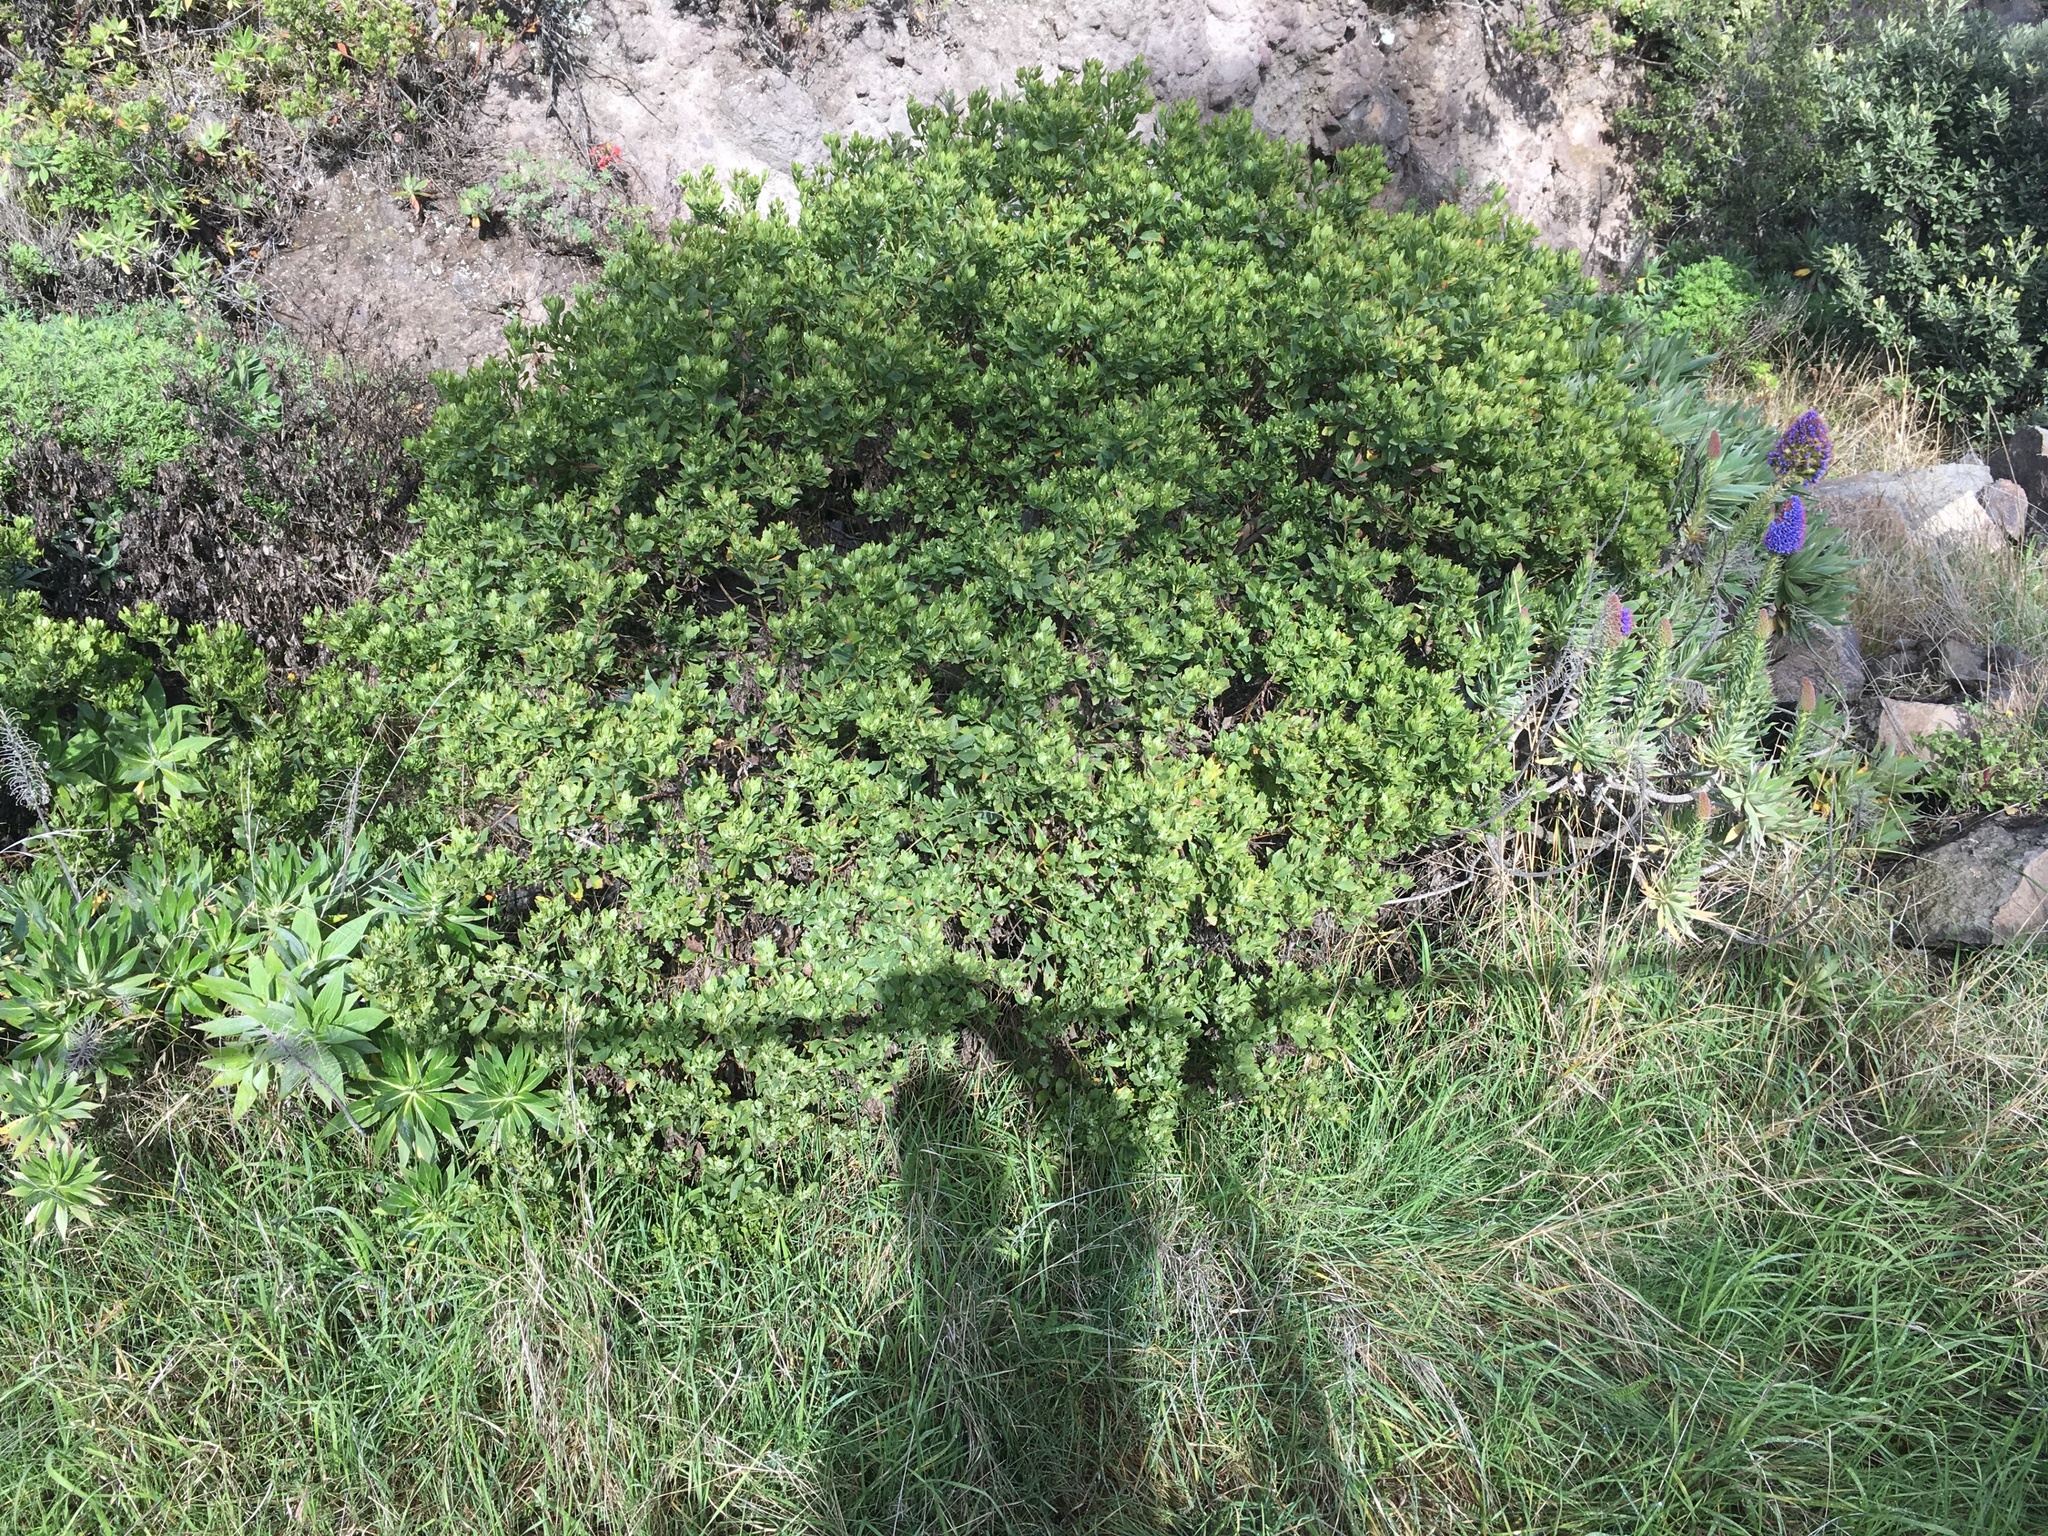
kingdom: Plantae
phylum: Tracheophyta
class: Magnoliopsida
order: Asterales
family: Asteraceae
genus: Osteospermum
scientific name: Osteospermum moniliferum
